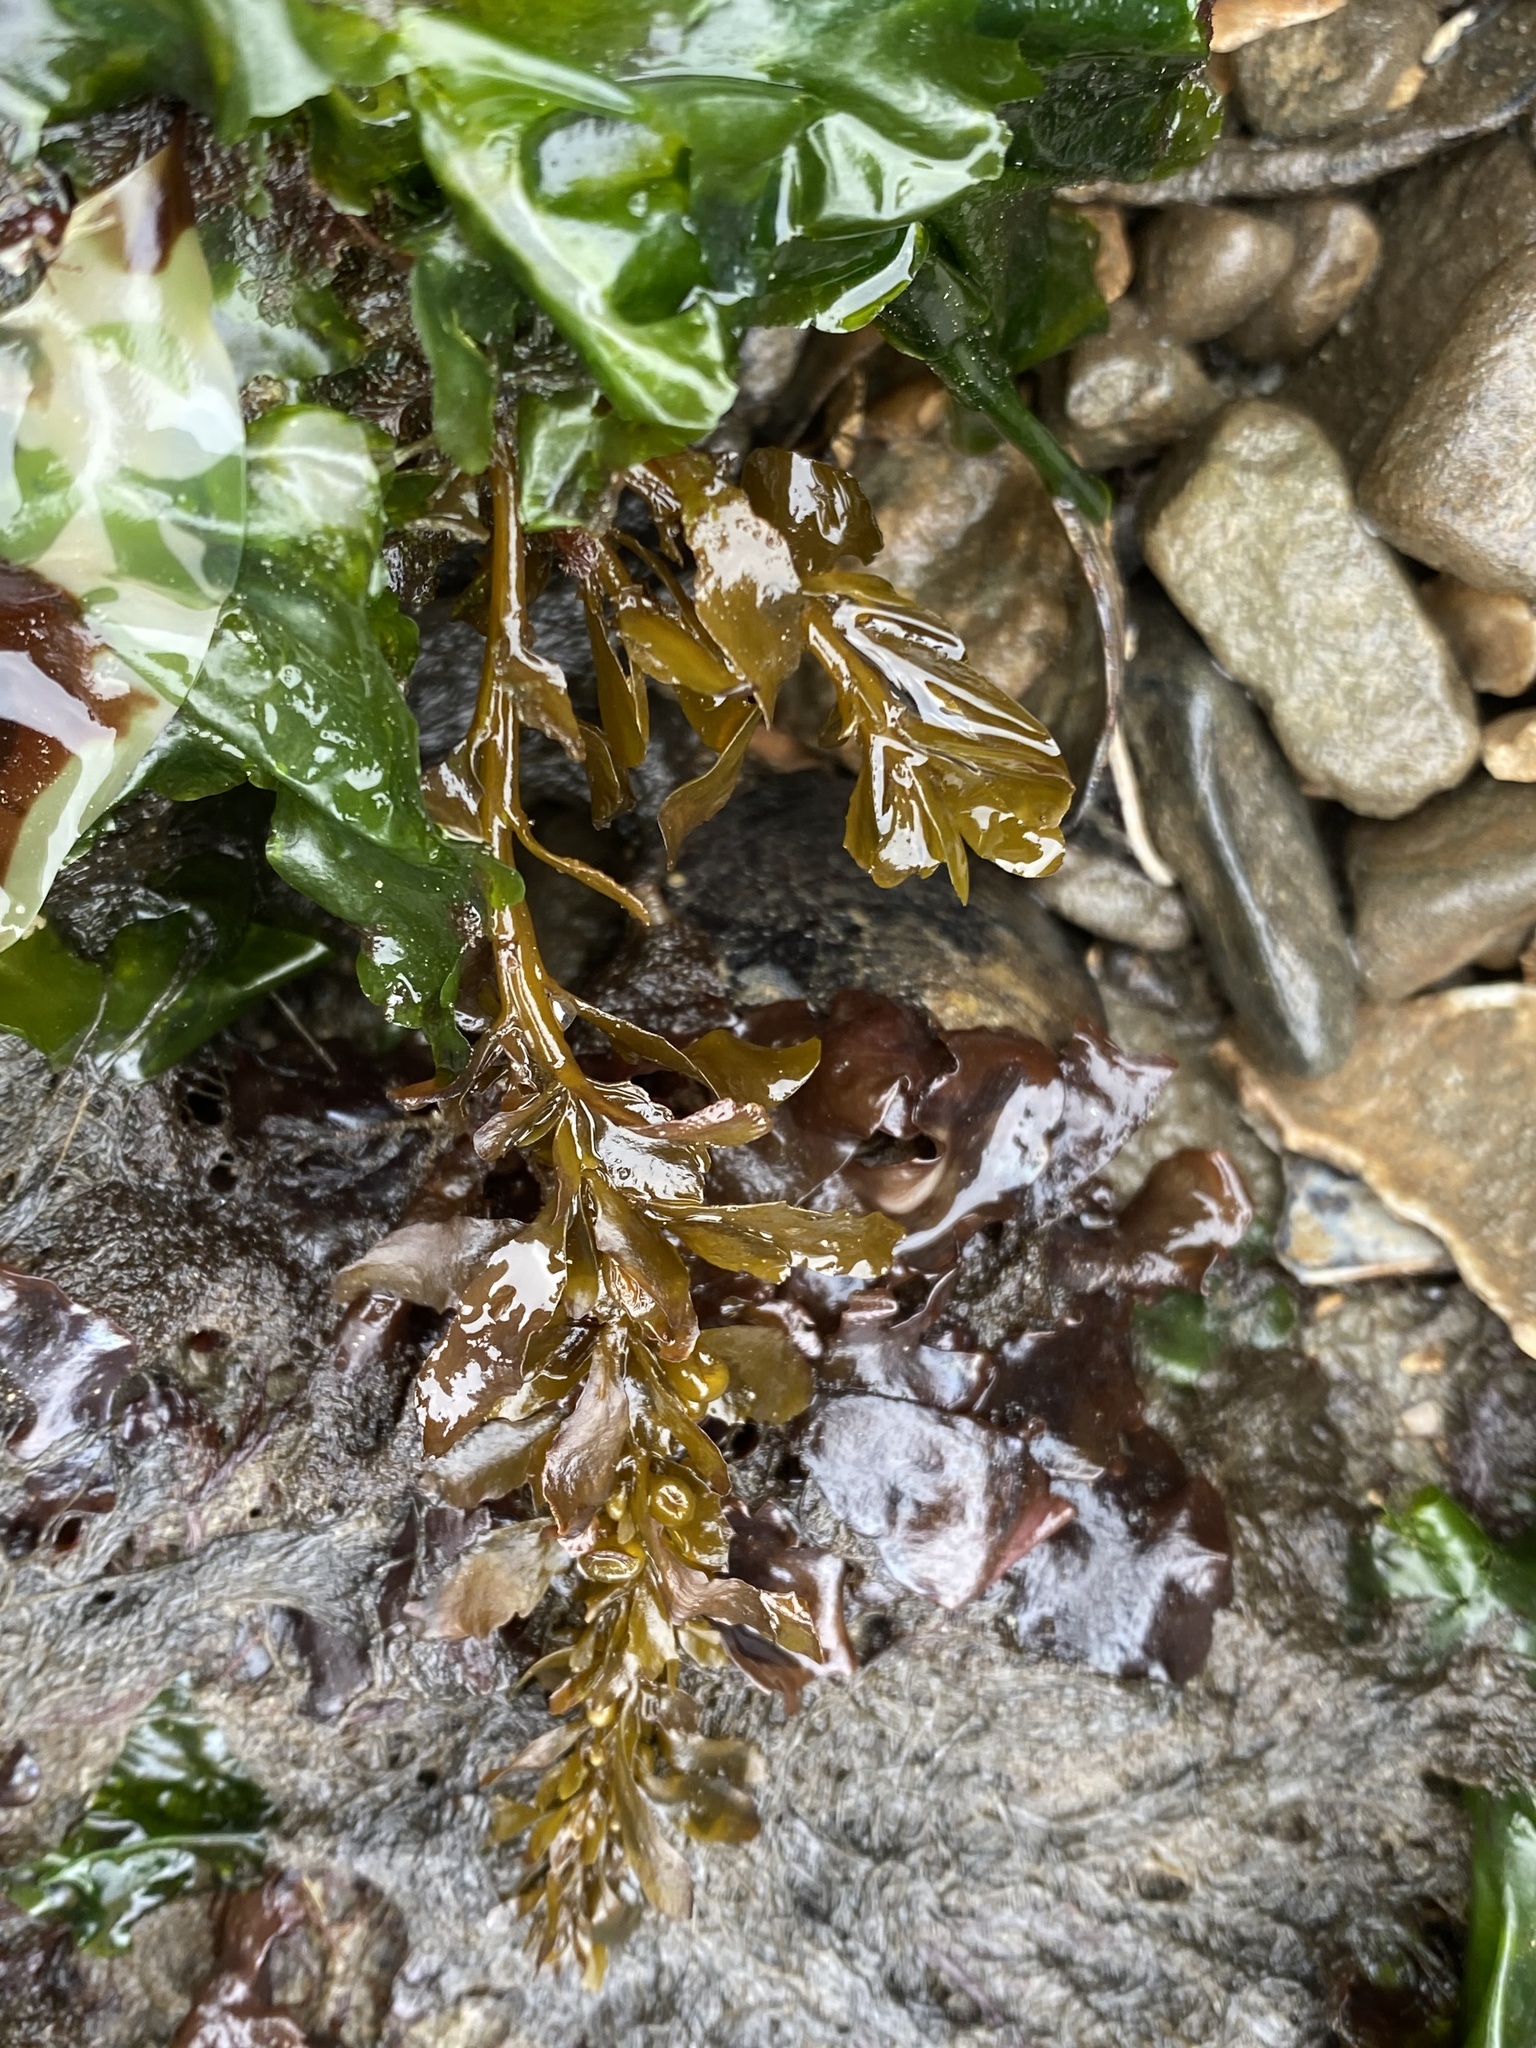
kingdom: Chromista
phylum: Ochrophyta
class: Phaeophyceae
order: Laminariales
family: Lessoniaceae
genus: Egregia
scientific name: Egregia menziesii
